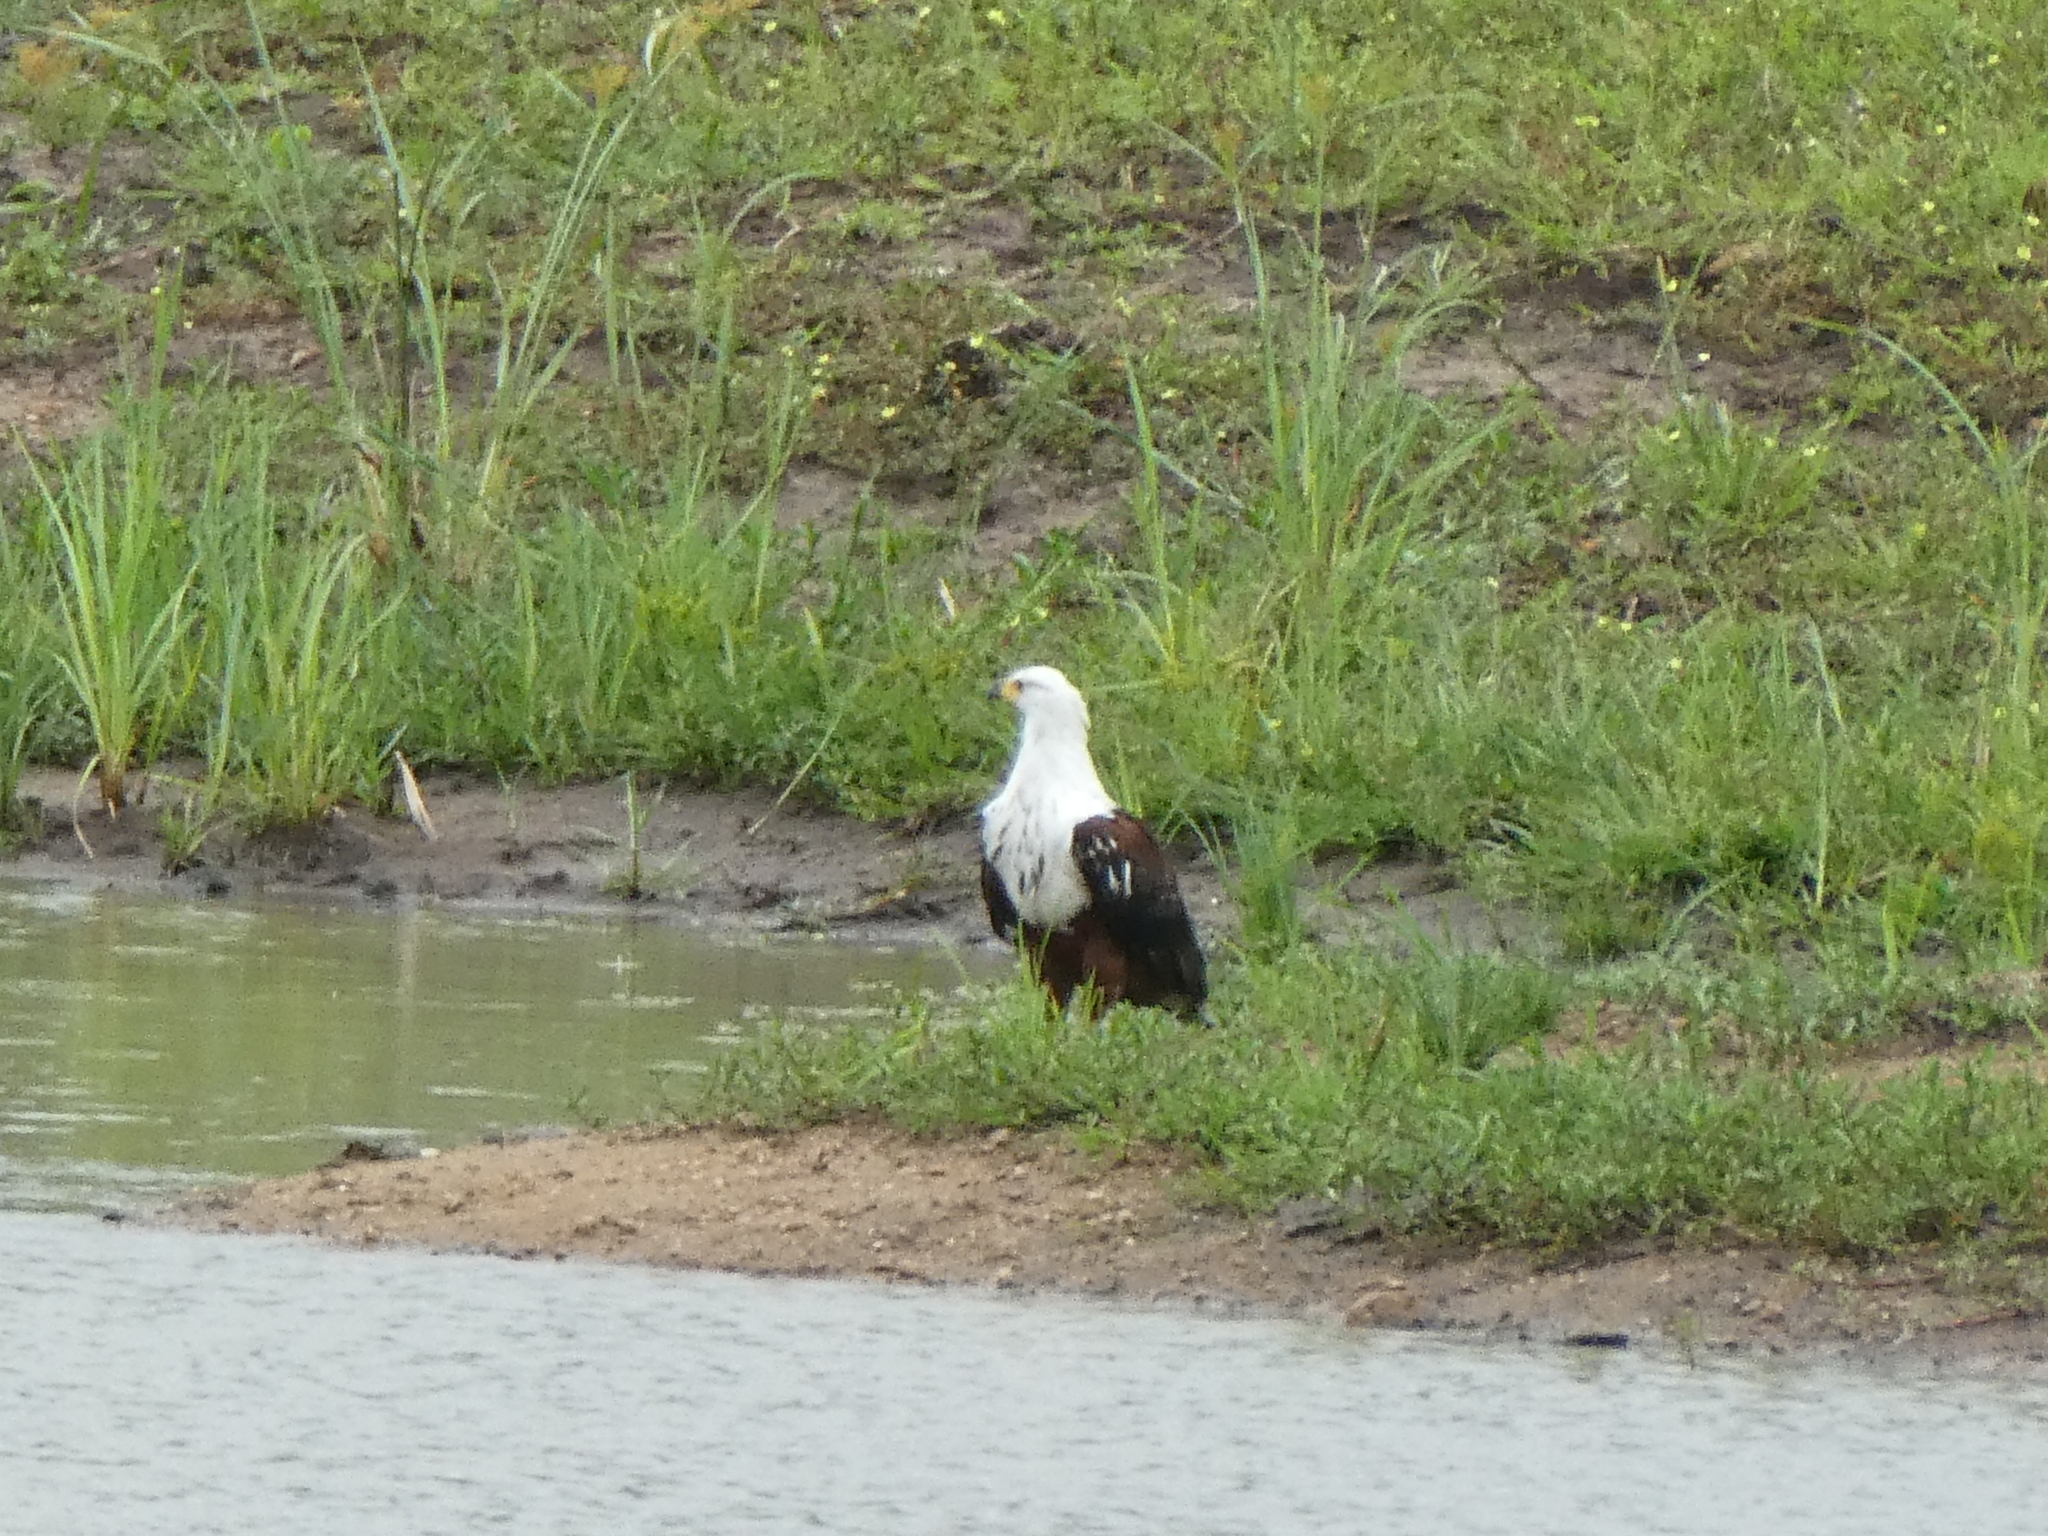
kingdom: Animalia
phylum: Chordata
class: Aves
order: Accipitriformes
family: Accipitridae
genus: Haliaeetus
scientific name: Haliaeetus vocifer
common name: African fish eagle
